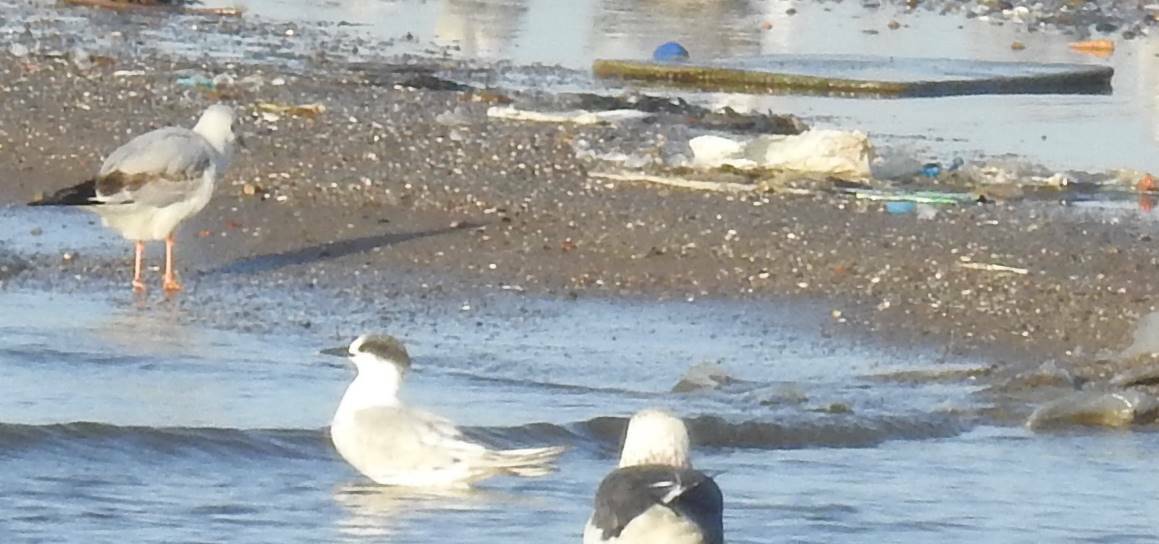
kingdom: Animalia
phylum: Chordata
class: Aves
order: Charadriiformes
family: Laridae
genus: Thalasseus
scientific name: Thalasseus sandvicensis
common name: Sandwich tern
